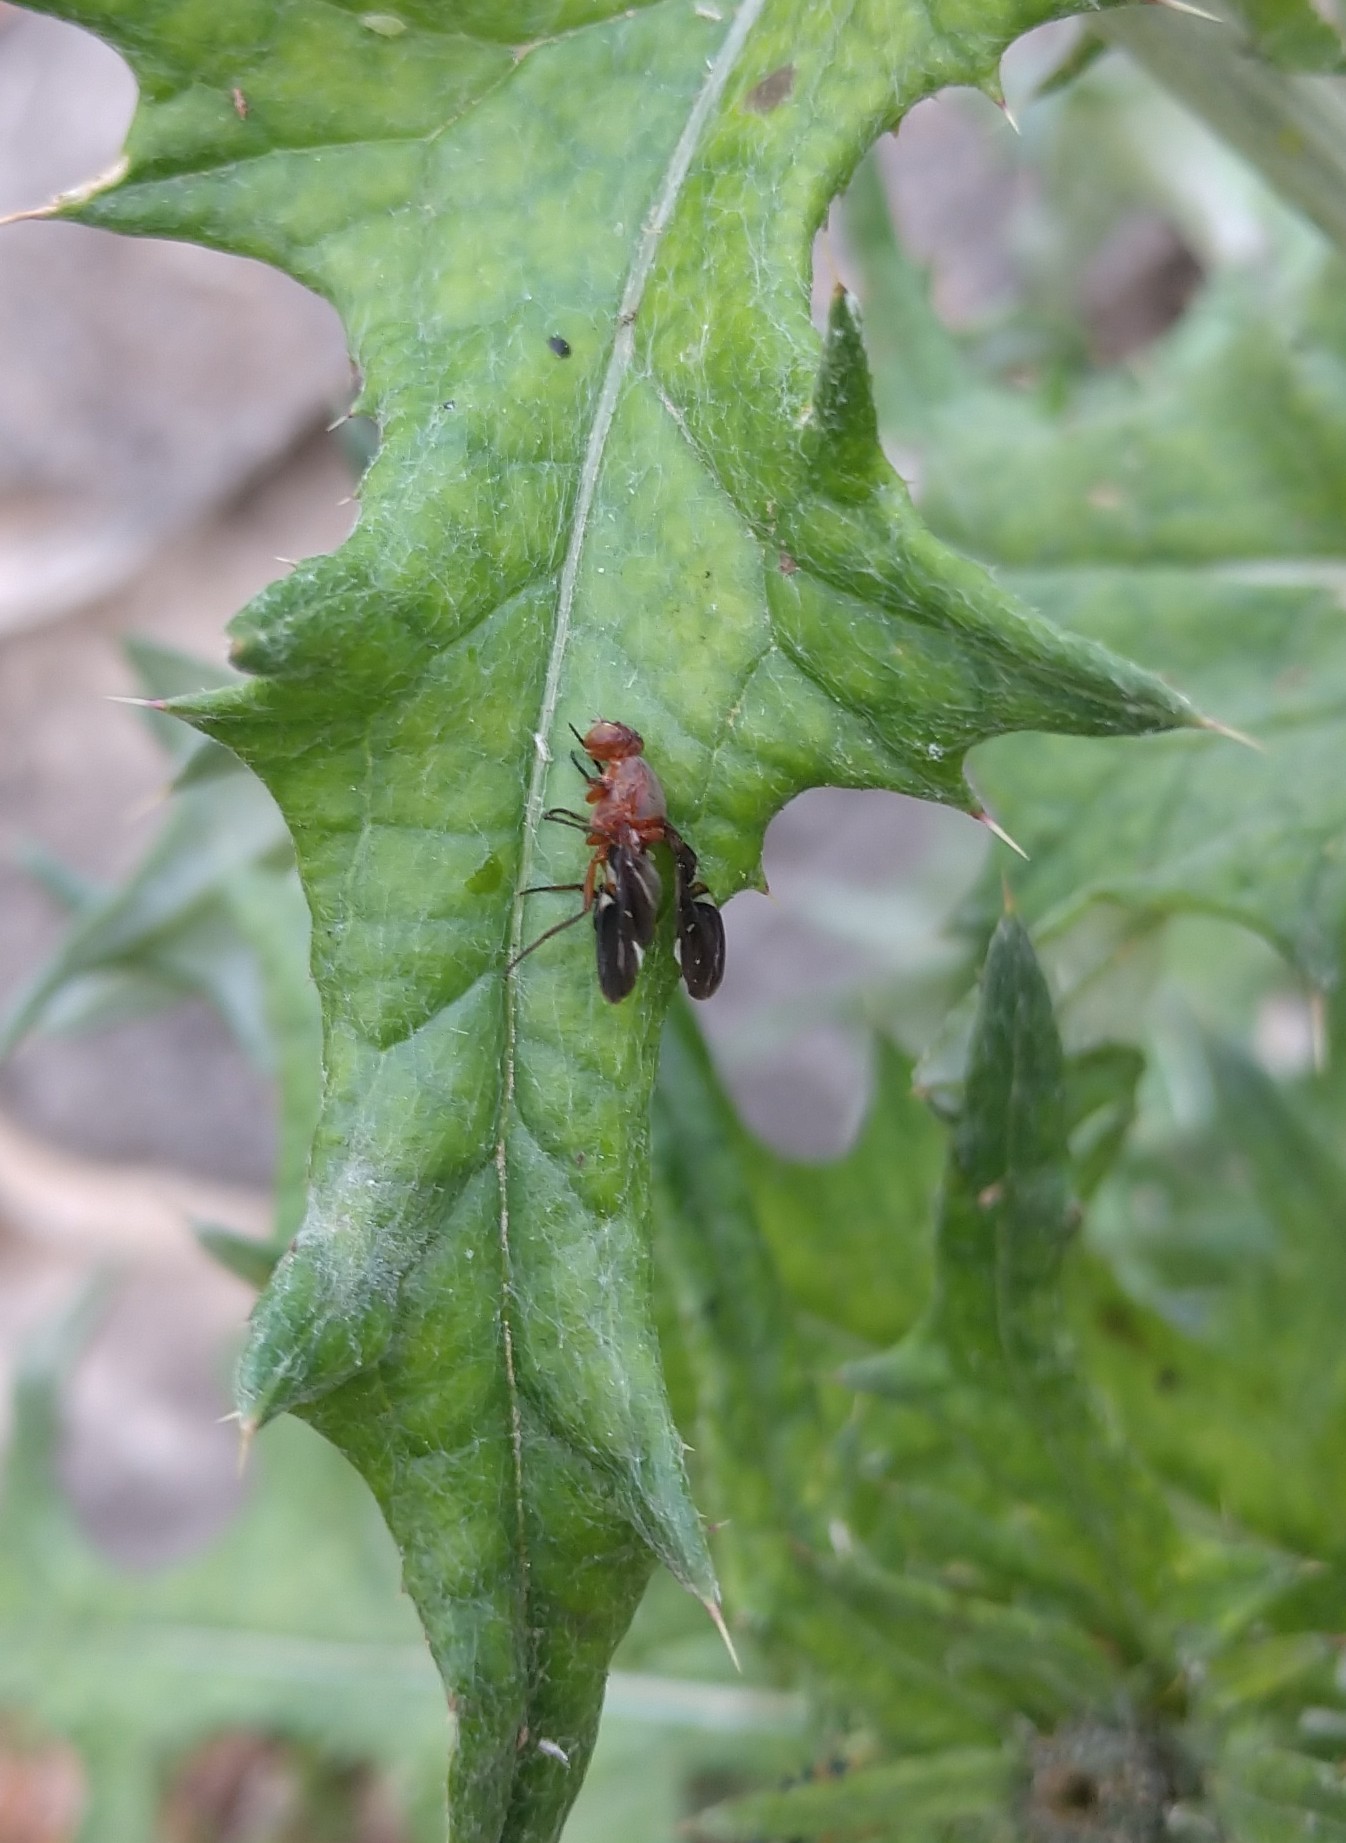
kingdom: Animalia
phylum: Arthropoda
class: Insecta
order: Diptera
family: Ulidiidae
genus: Delphinia
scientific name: Delphinia picta
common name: Common picture-winged fly
